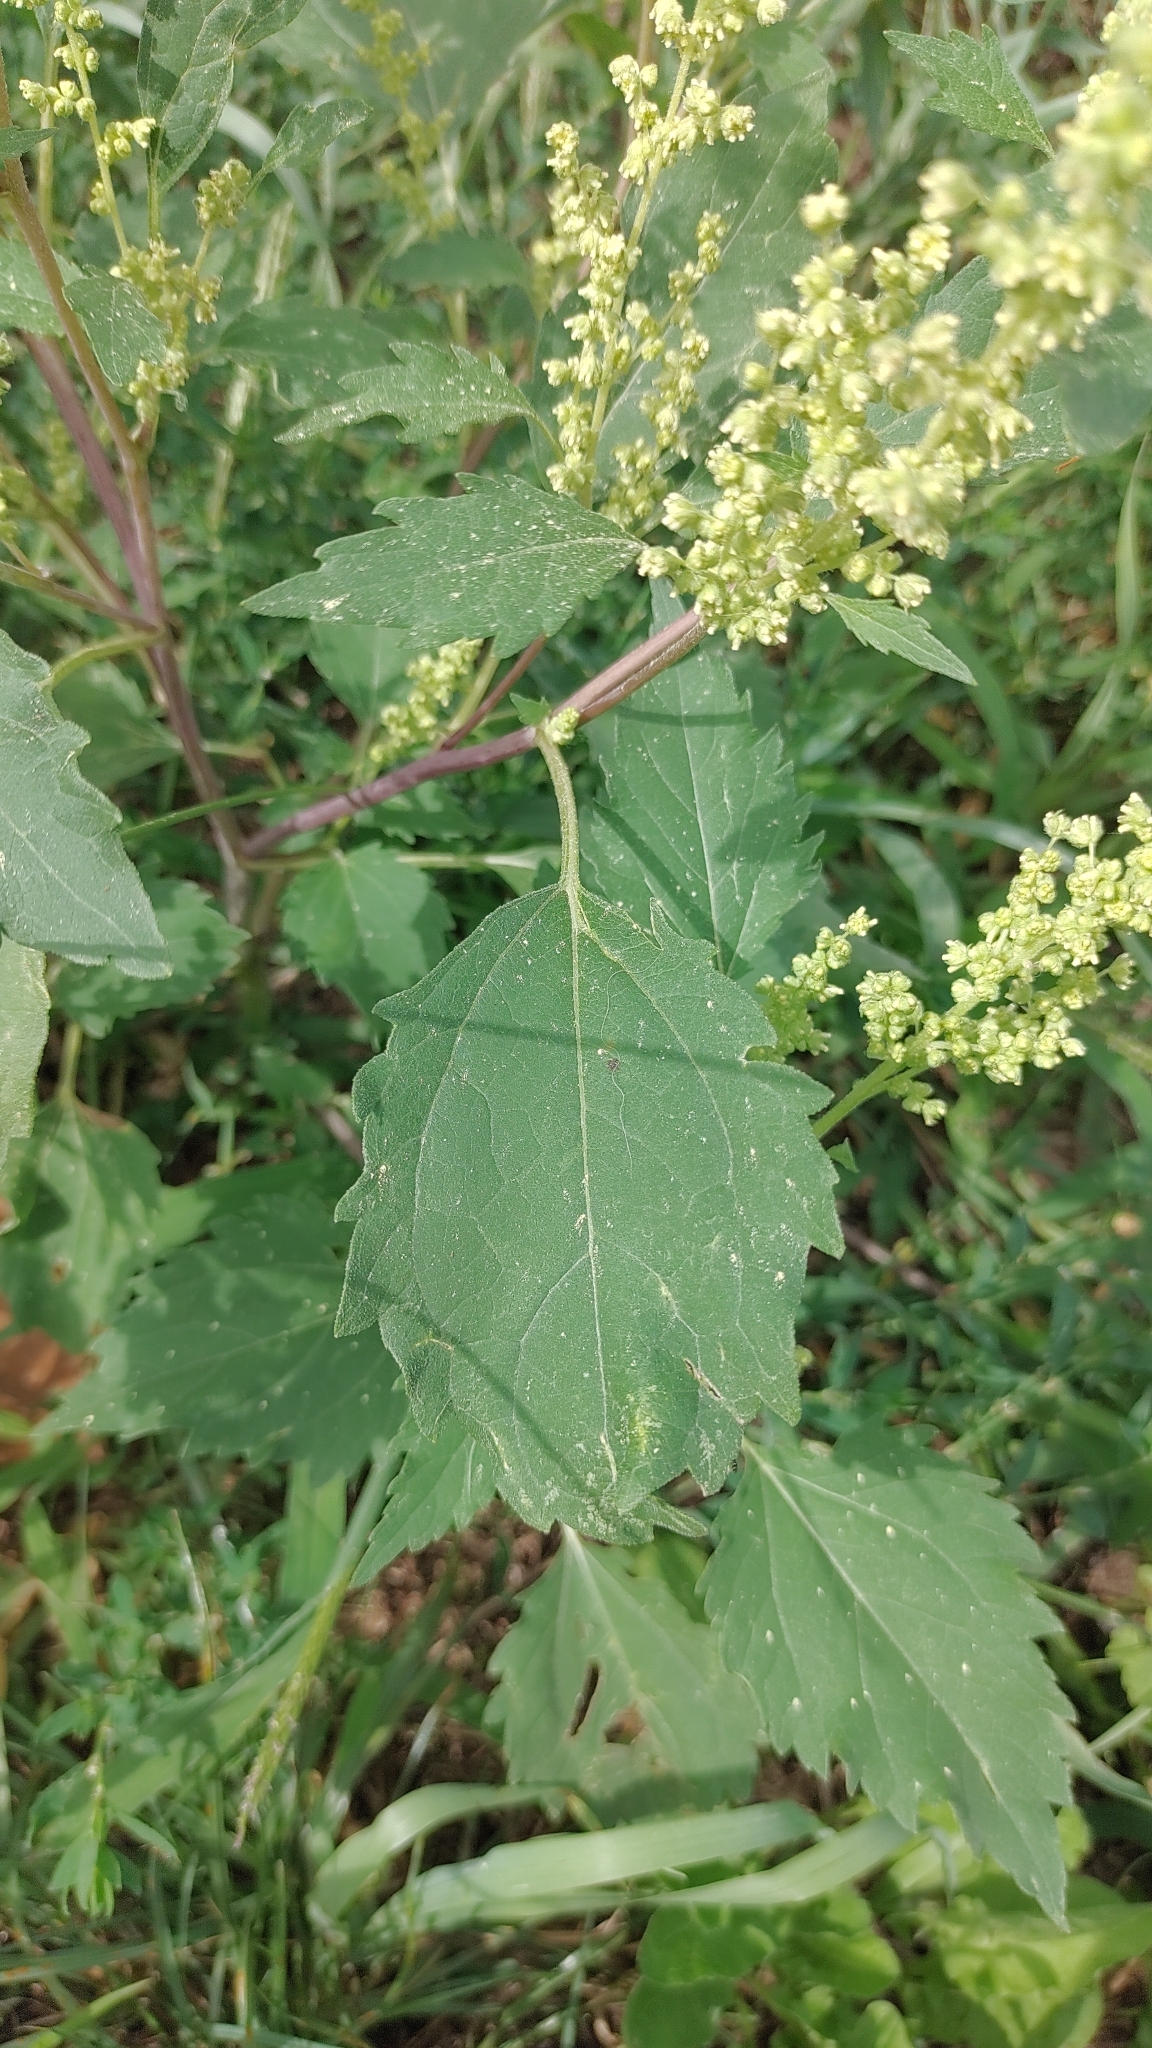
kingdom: Plantae
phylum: Tracheophyta
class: Magnoliopsida
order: Asterales
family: Asteraceae
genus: Cyclachaena
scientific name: Cyclachaena xanthiifolia
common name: Giant sumpweed
